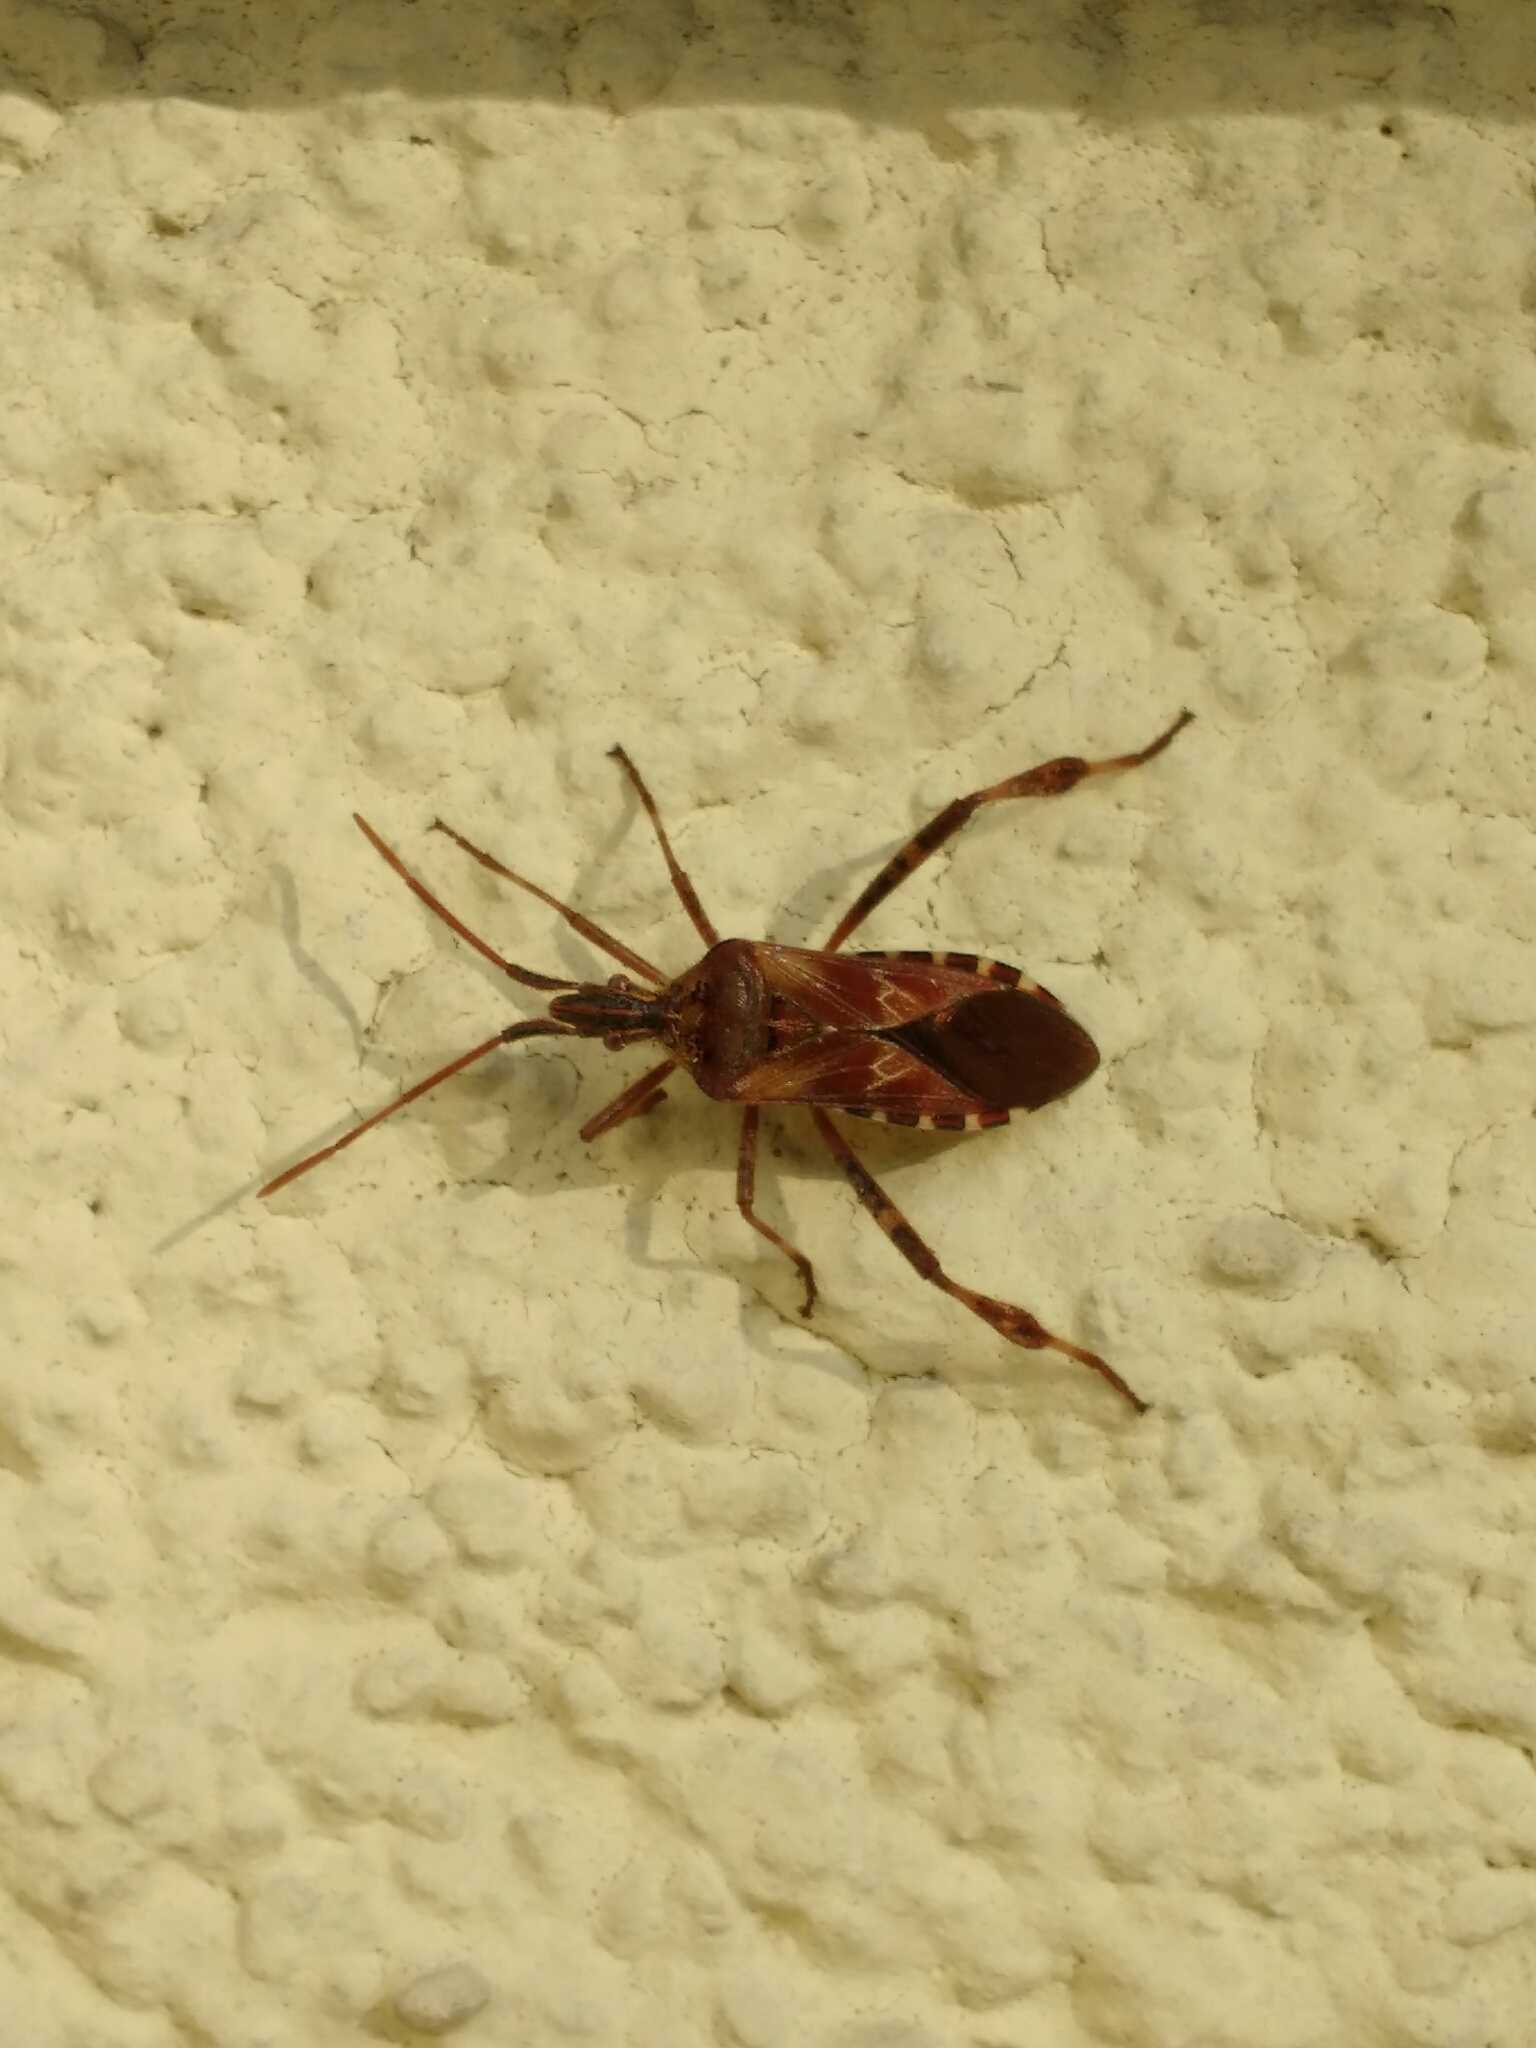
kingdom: Animalia
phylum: Arthropoda
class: Insecta
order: Hemiptera
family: Coreidae
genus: Leptoglossus
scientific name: Leptoglossus occidentalis
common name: Western conifer-seed bug
